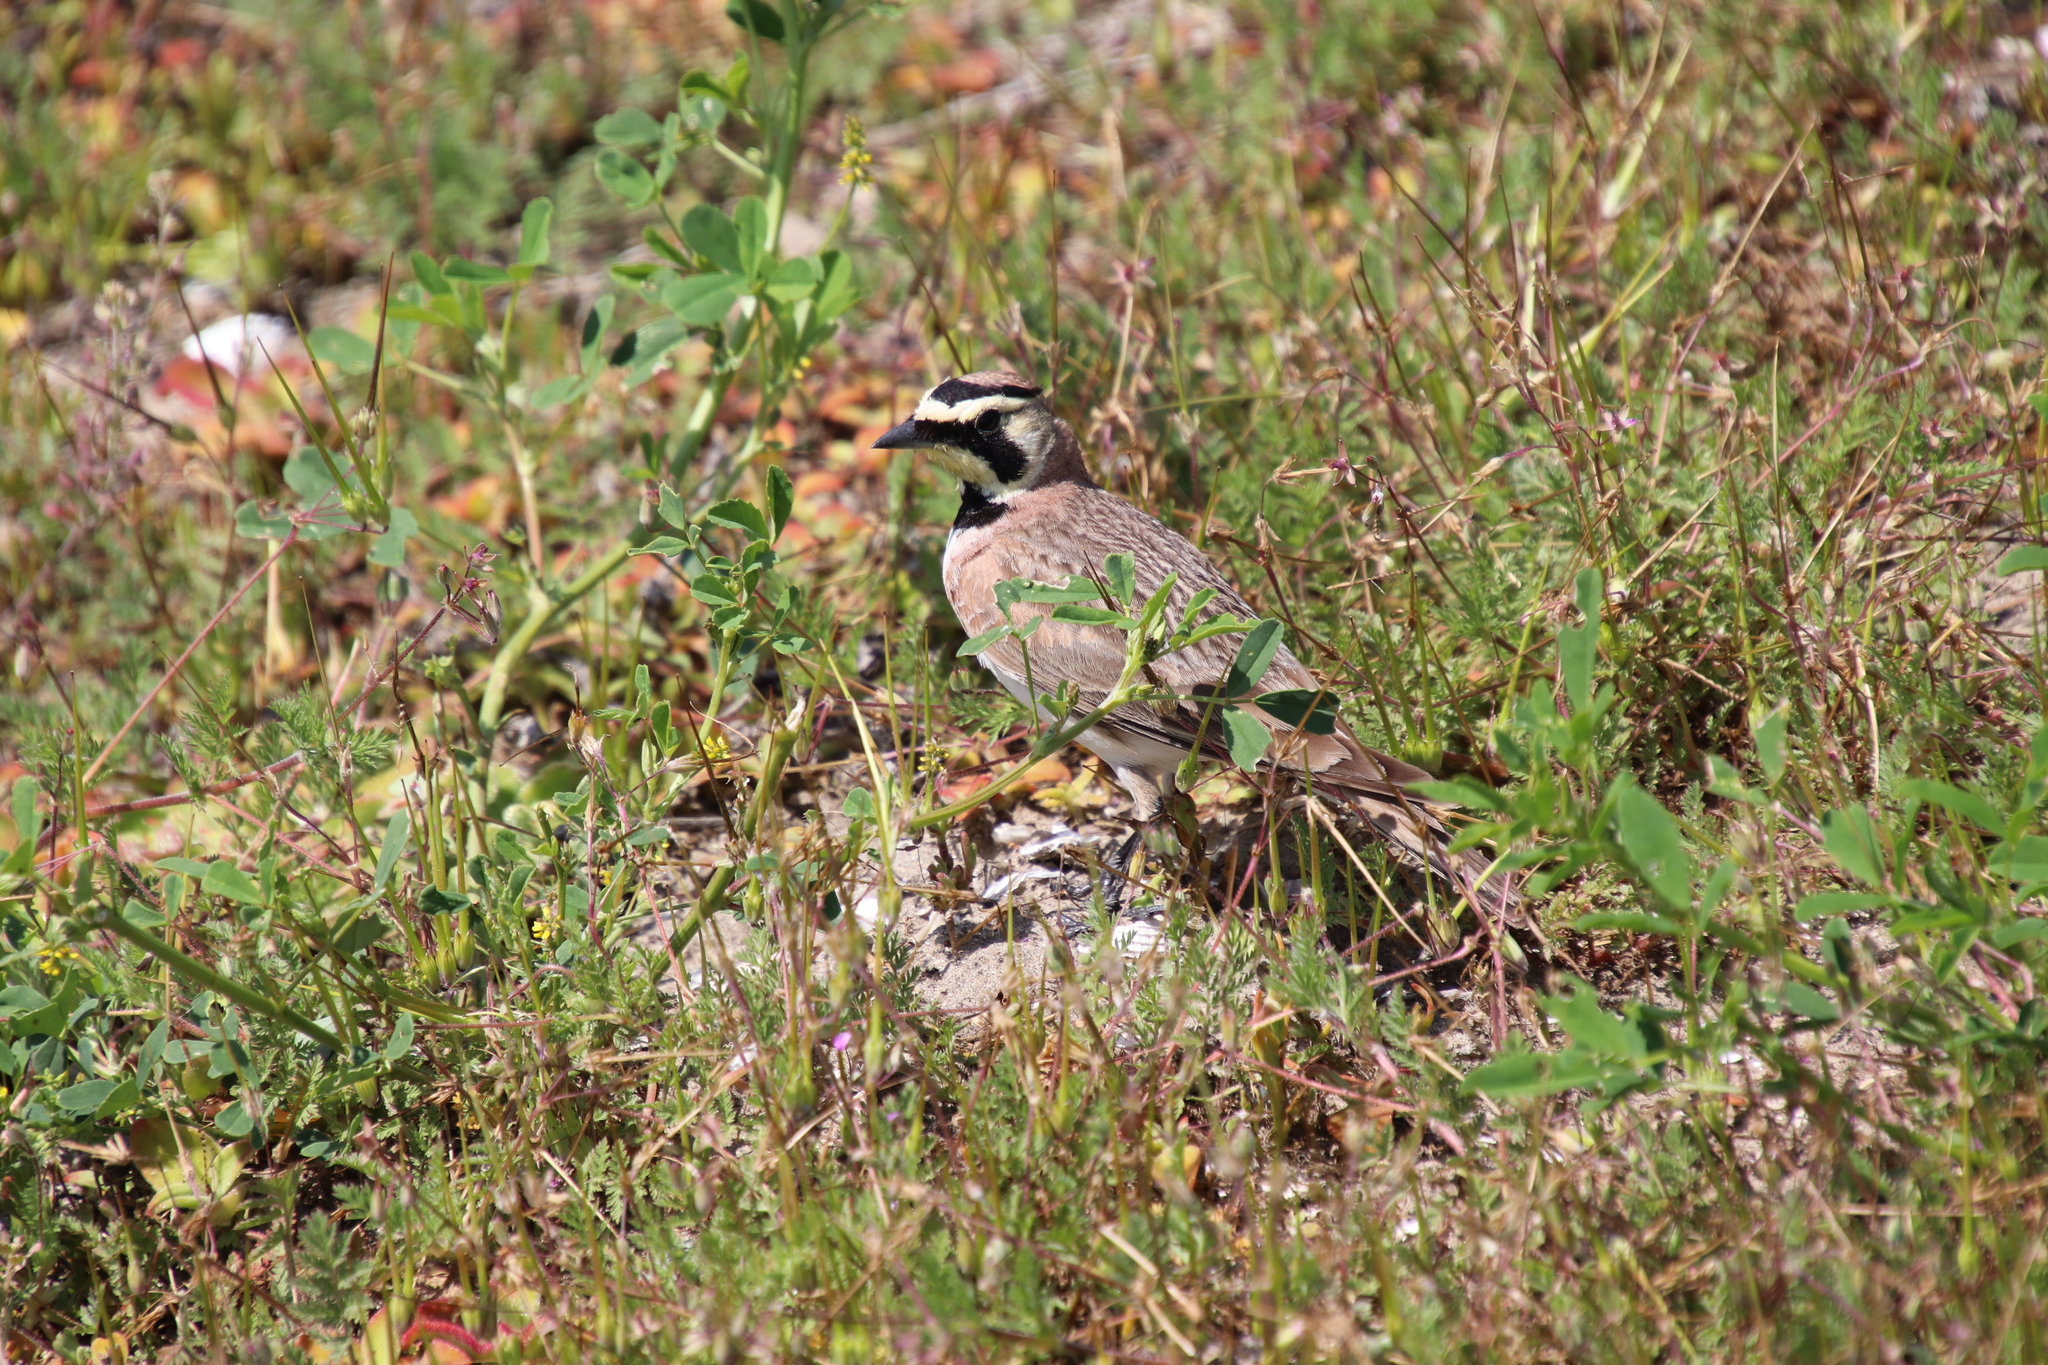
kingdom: Animalia
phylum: Chordata
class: Aves
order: Passeriformes
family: Alaudidae
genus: Eremophila
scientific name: Eremophila alpestris
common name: Horned lark
